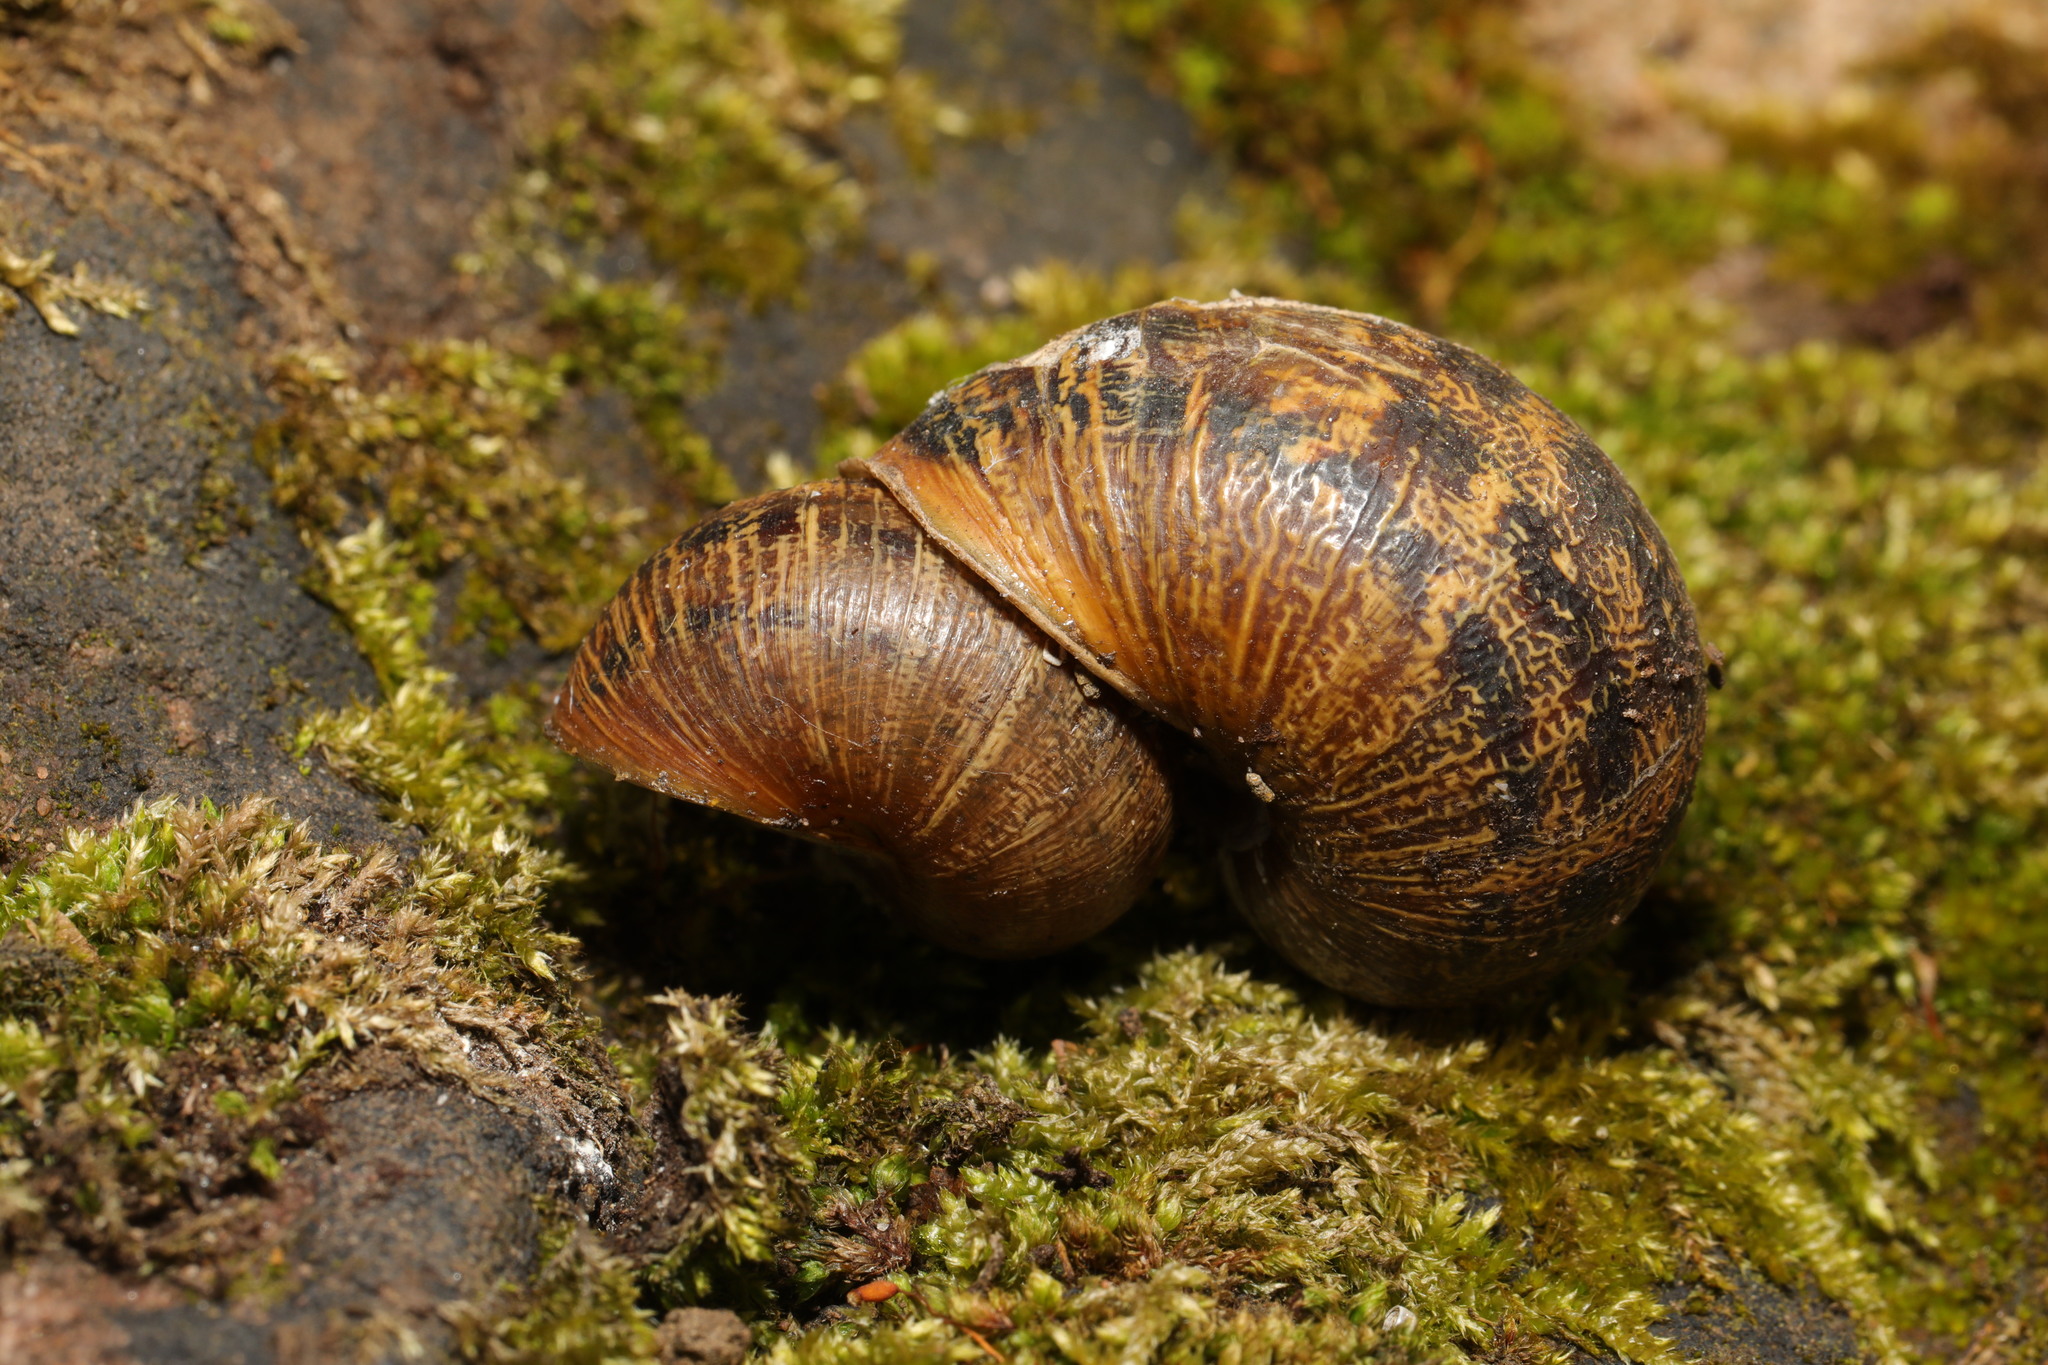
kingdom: Animalia
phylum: Mollusca
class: Gastropoda
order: Stylommatophora
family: Helicidae
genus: Cornu
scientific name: Cornu aspersum
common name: Brown garden snail
